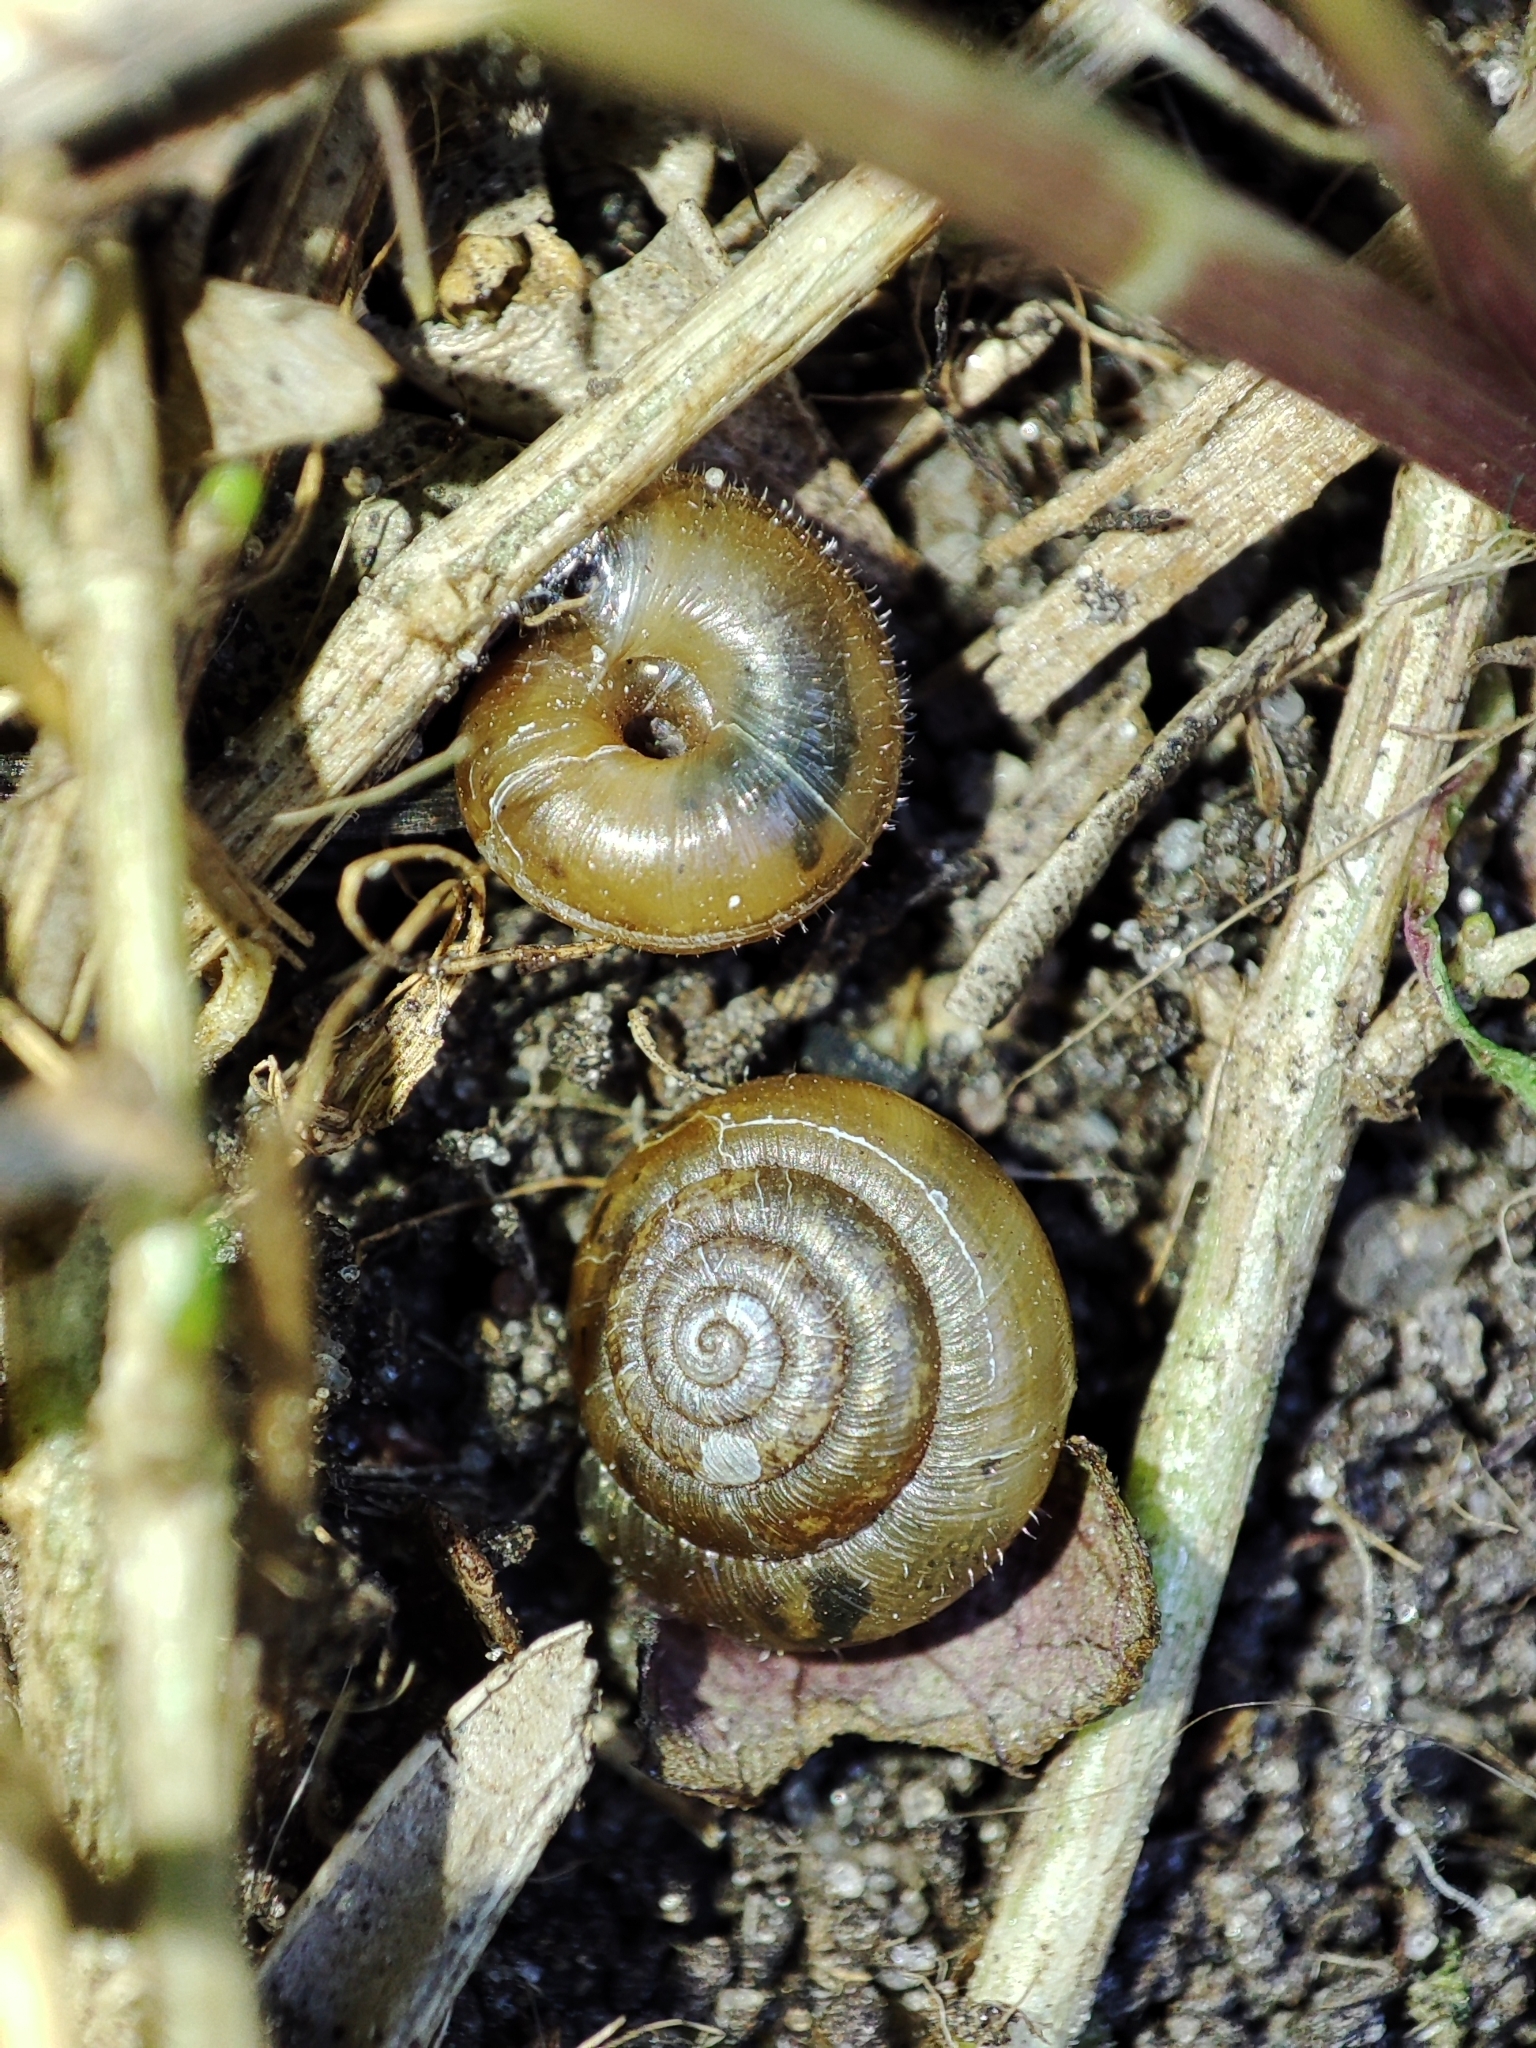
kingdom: Animalia
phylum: Mollusca
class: Gastropoda
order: Stylommatophora
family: Hygromiidae
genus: Trochulus
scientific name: Trochulus hispidus
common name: Hairy snail
